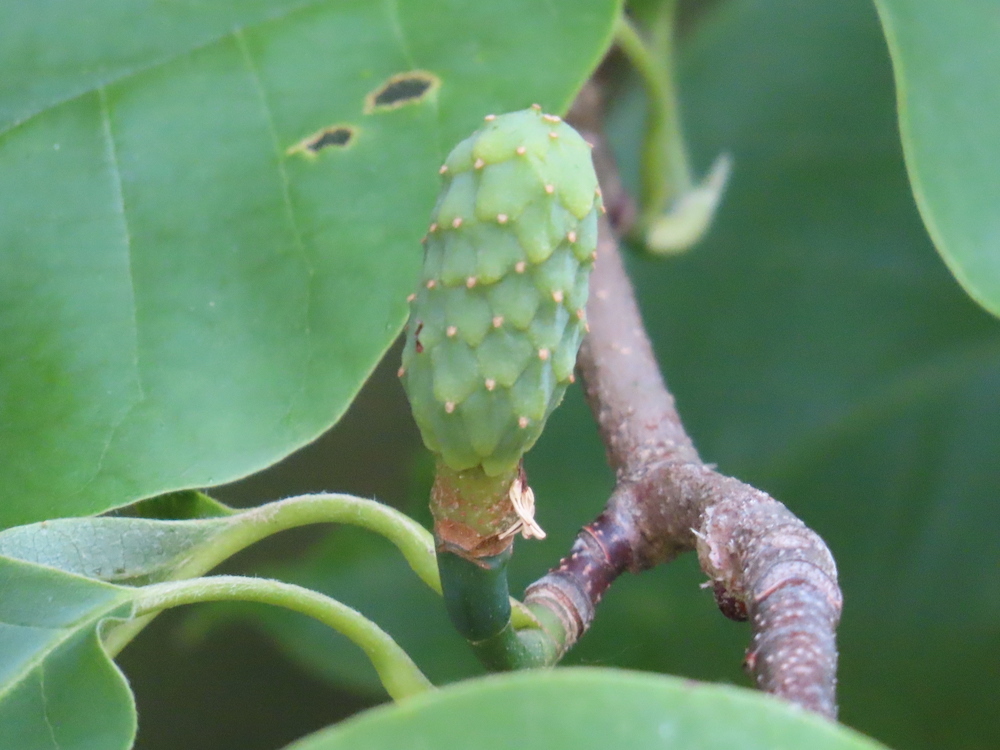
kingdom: Plantae
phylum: Tracheophyta
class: Magnoliopsida
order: Magnoliales
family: Magnoliaceae
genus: Magnolia
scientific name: Magnolia acuminata
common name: Cucumber magnolia
